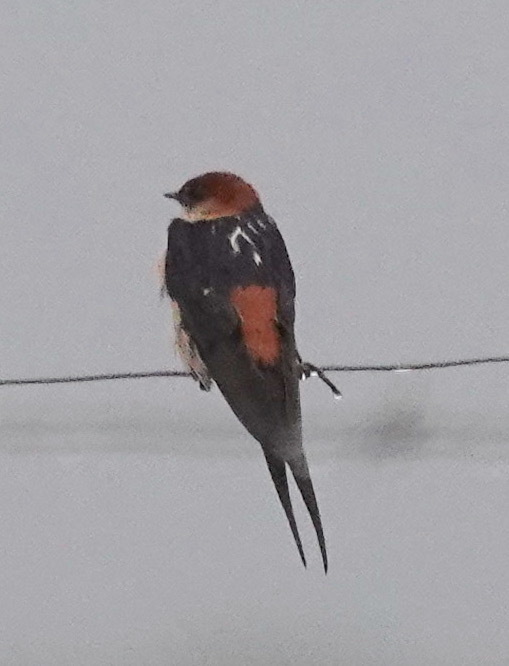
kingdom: Animalia
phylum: Chordata
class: Aves
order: Passeriformes
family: Hirundinidae
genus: Cecropis
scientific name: Cecropis cucullata
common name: Greater striped-swallow
